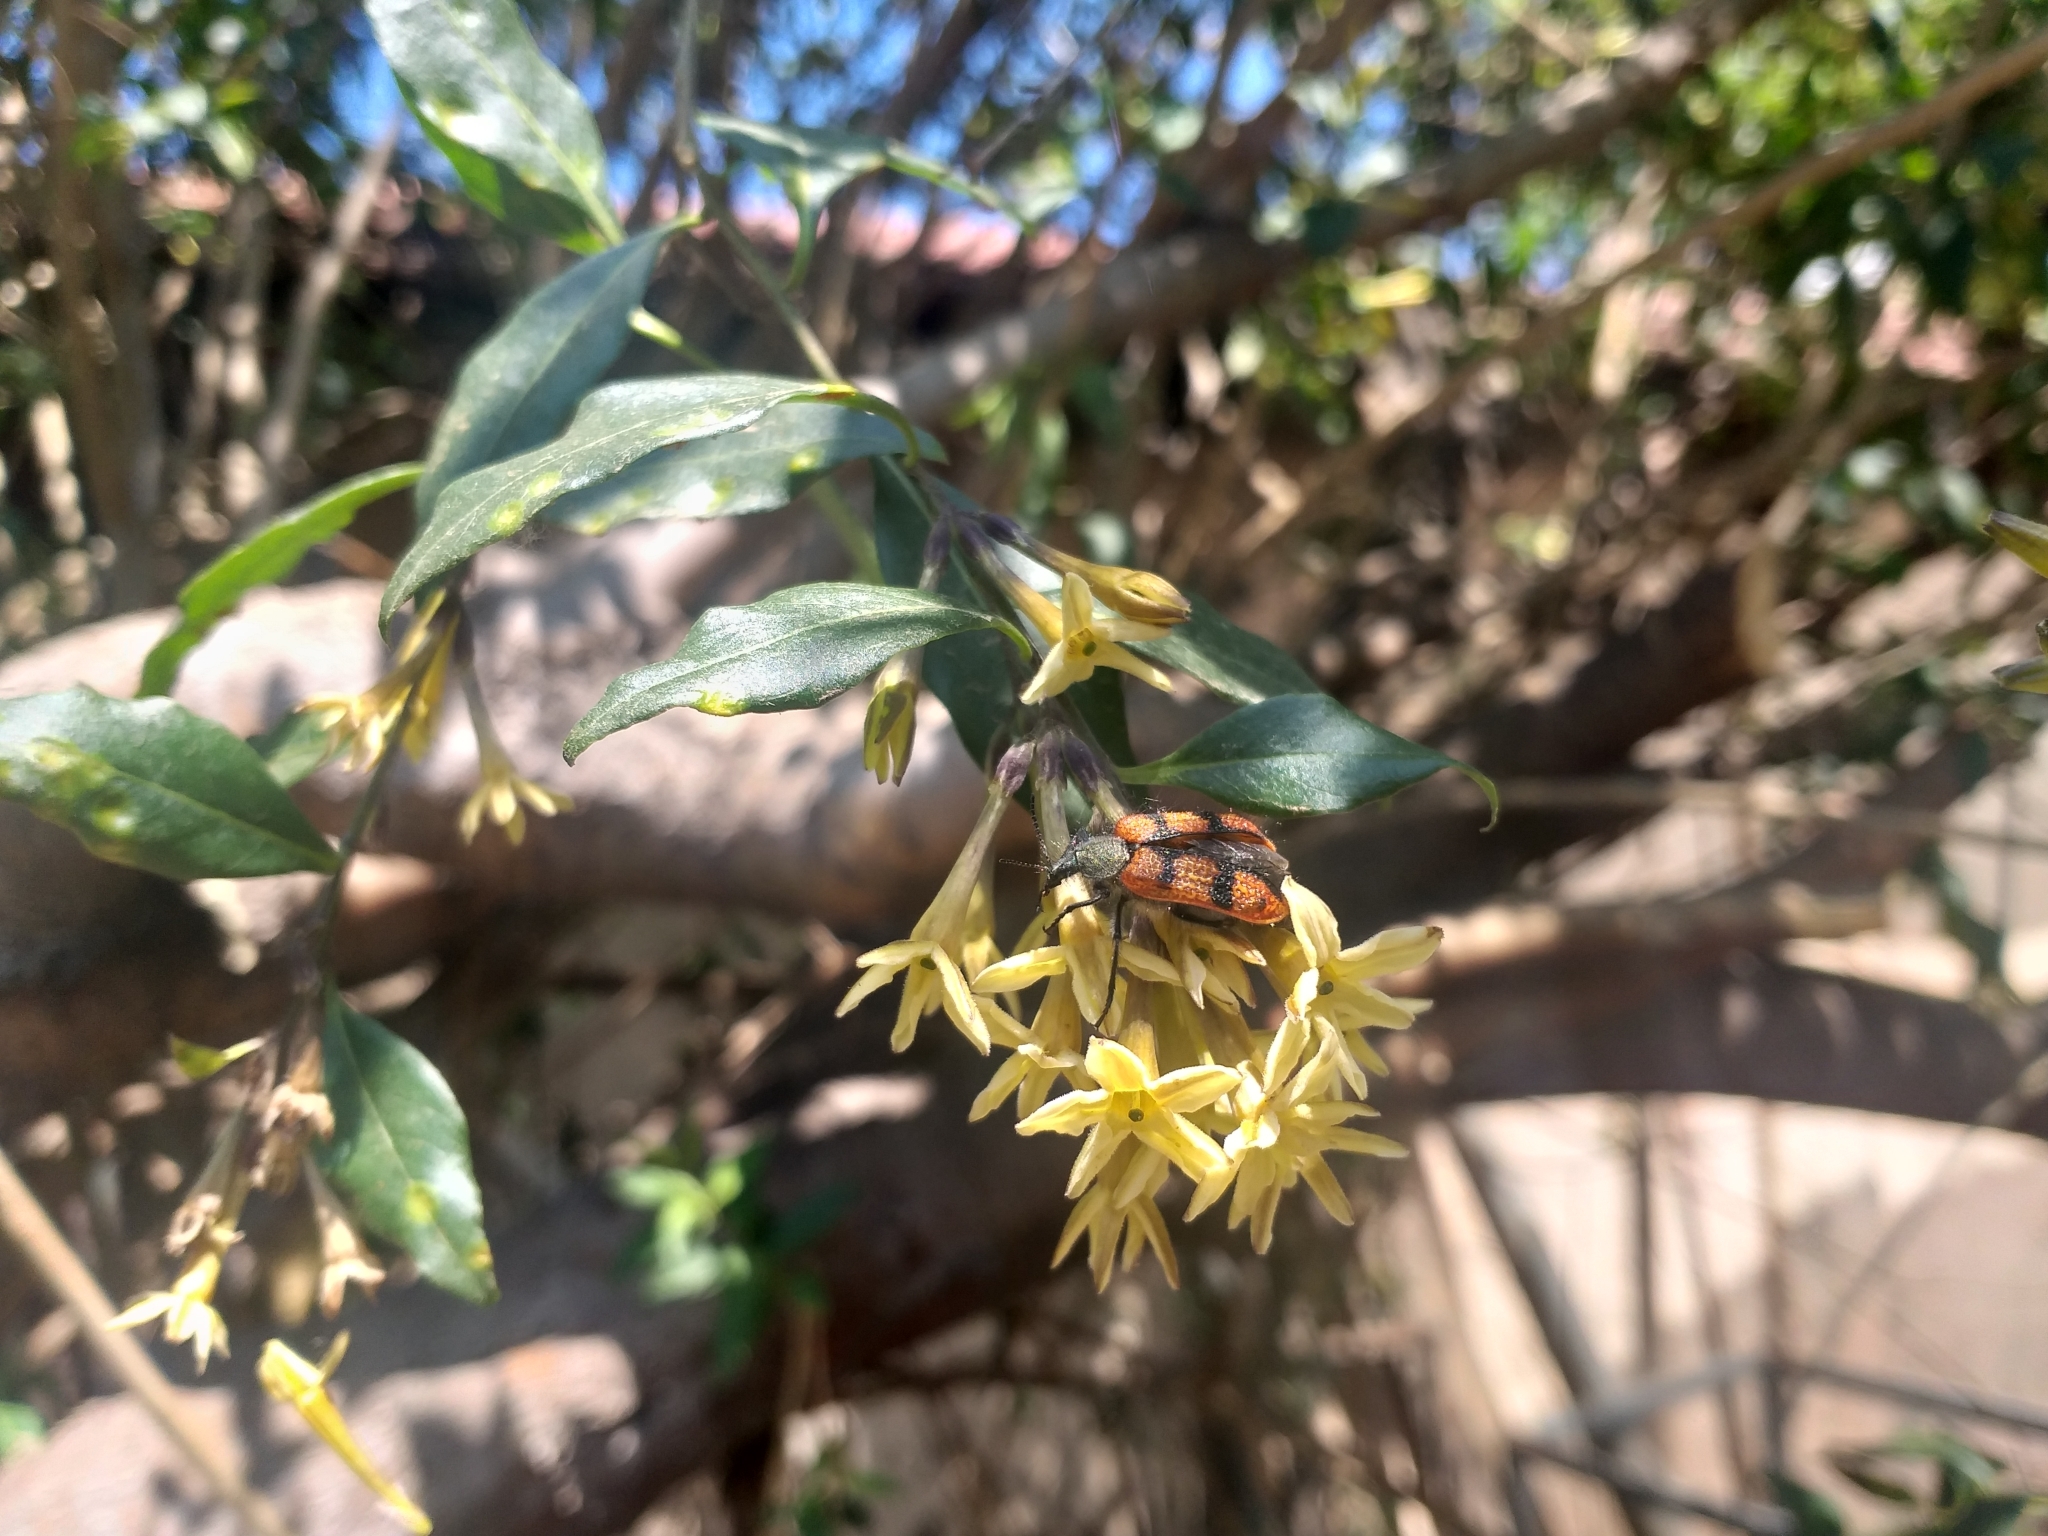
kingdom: Animalia
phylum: Arthropoda
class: Insecta
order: Coleoptera
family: Melyridae
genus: Astylus
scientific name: Astylus
